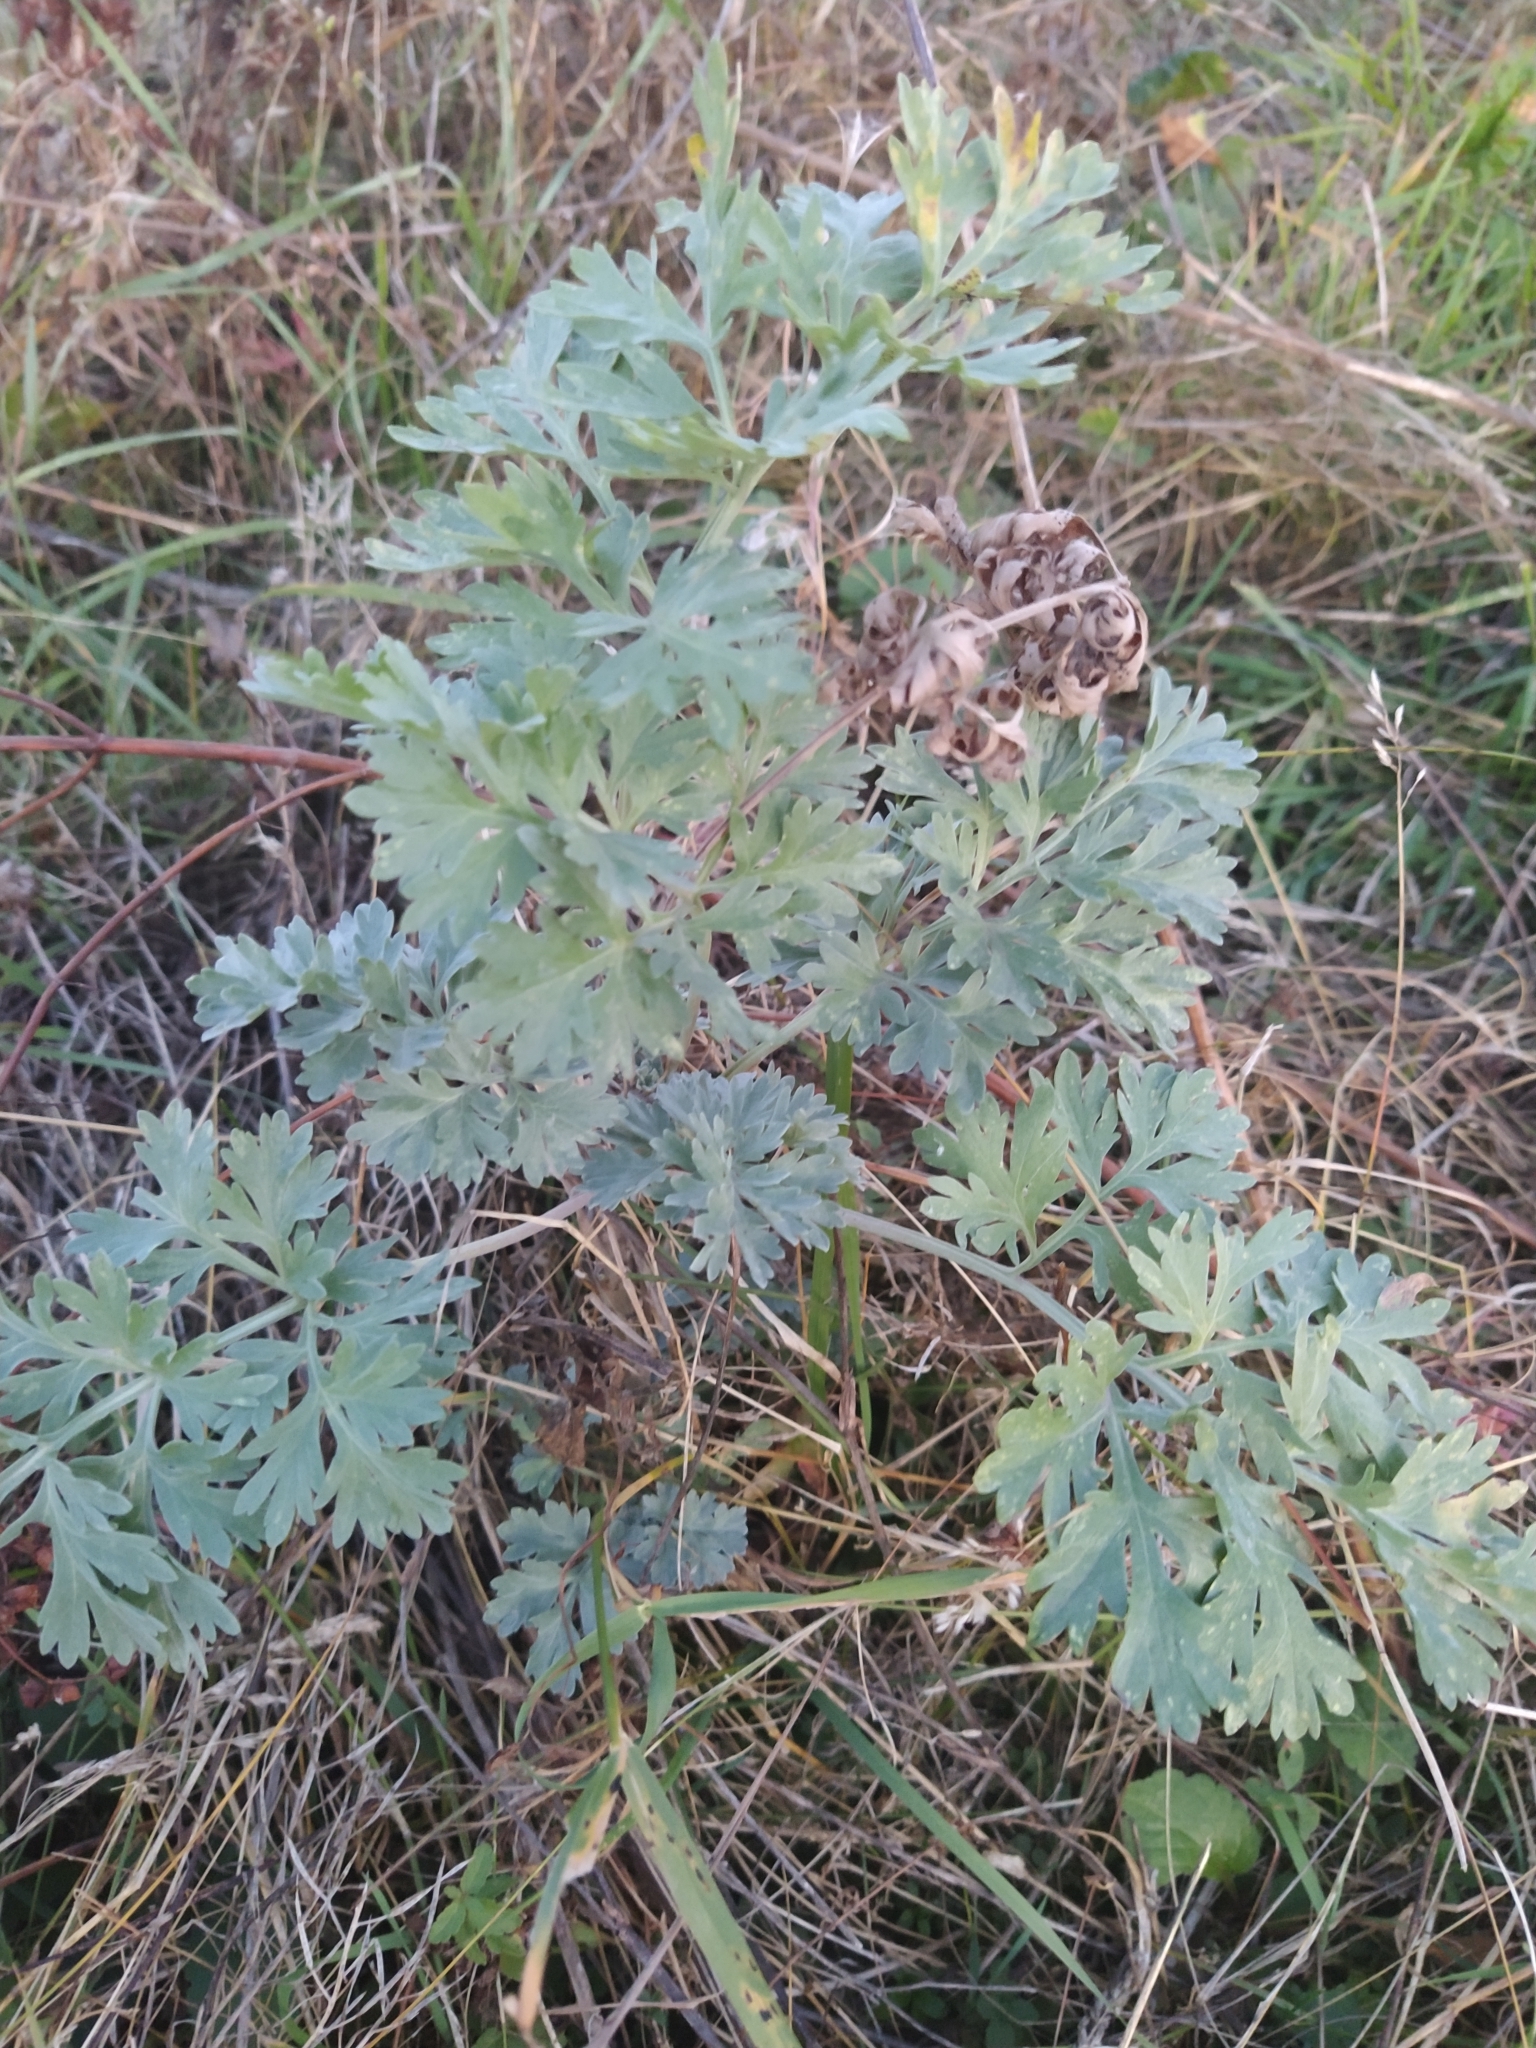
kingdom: Plantae
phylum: Tracheophyta
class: Magnoliopsida
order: Asterales
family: Asteraceae
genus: Artemisia
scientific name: Artemisia absinthium
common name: Wormwood
